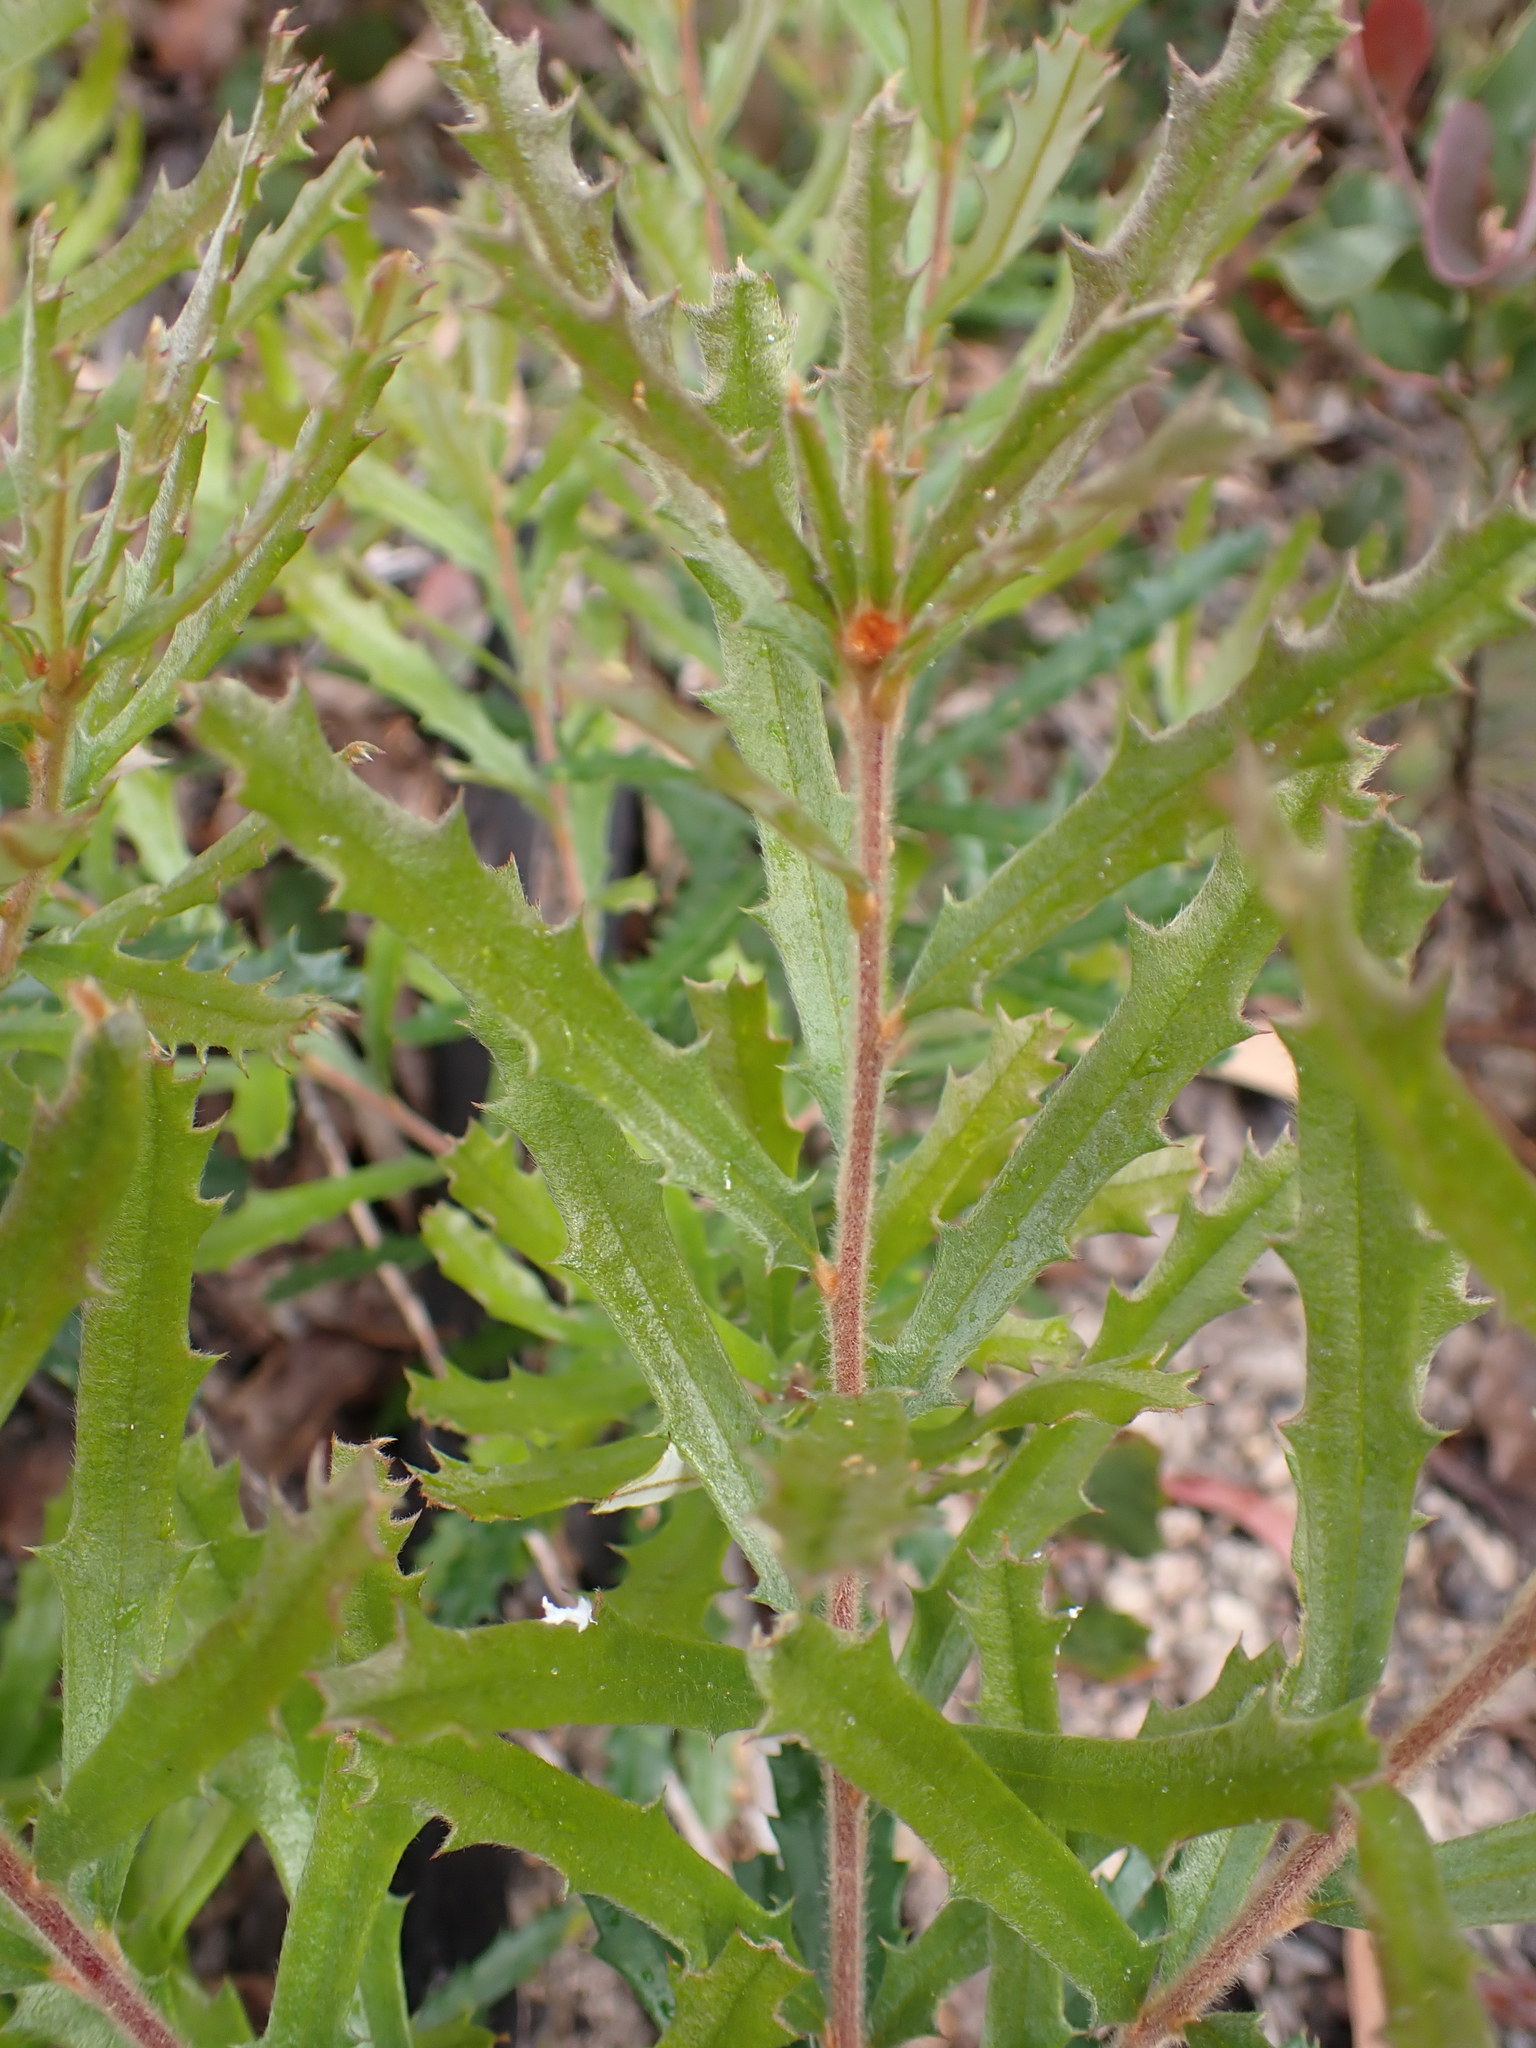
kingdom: Plantae
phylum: Tracheophyta
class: Magnoliopsida
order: Proteales
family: Proteaceae
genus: Banksia
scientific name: Banksia canei
